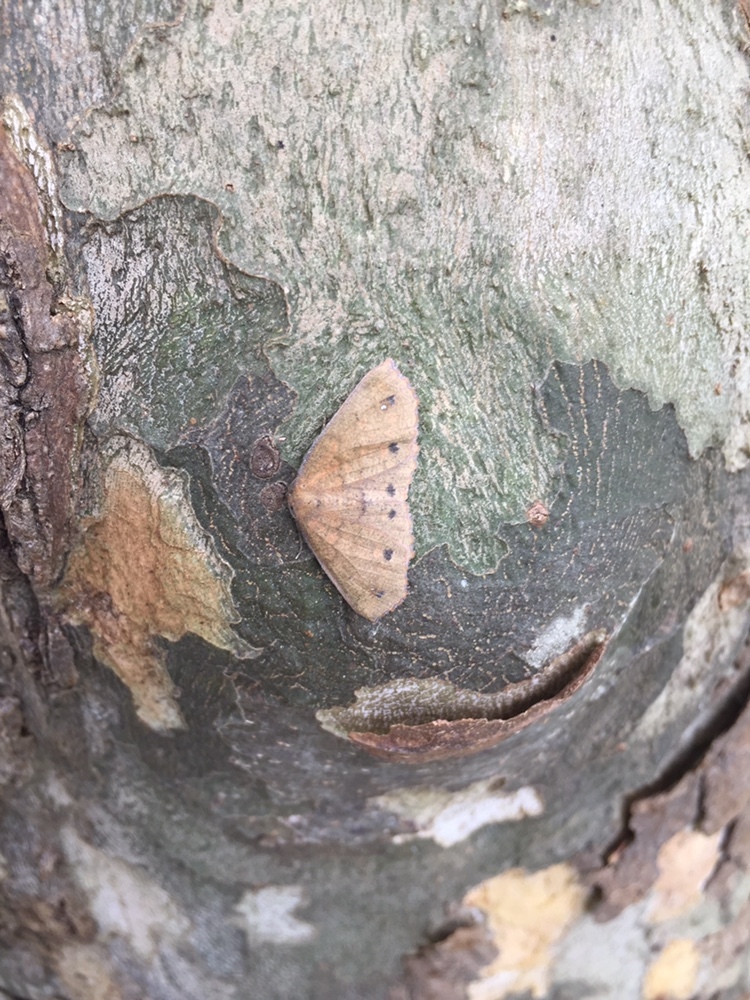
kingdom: Animalia
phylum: Arthropoda
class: Insecta
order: Lepidoptera
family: Geometridae
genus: Xyridacma
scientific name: Xyridacma ustaria
